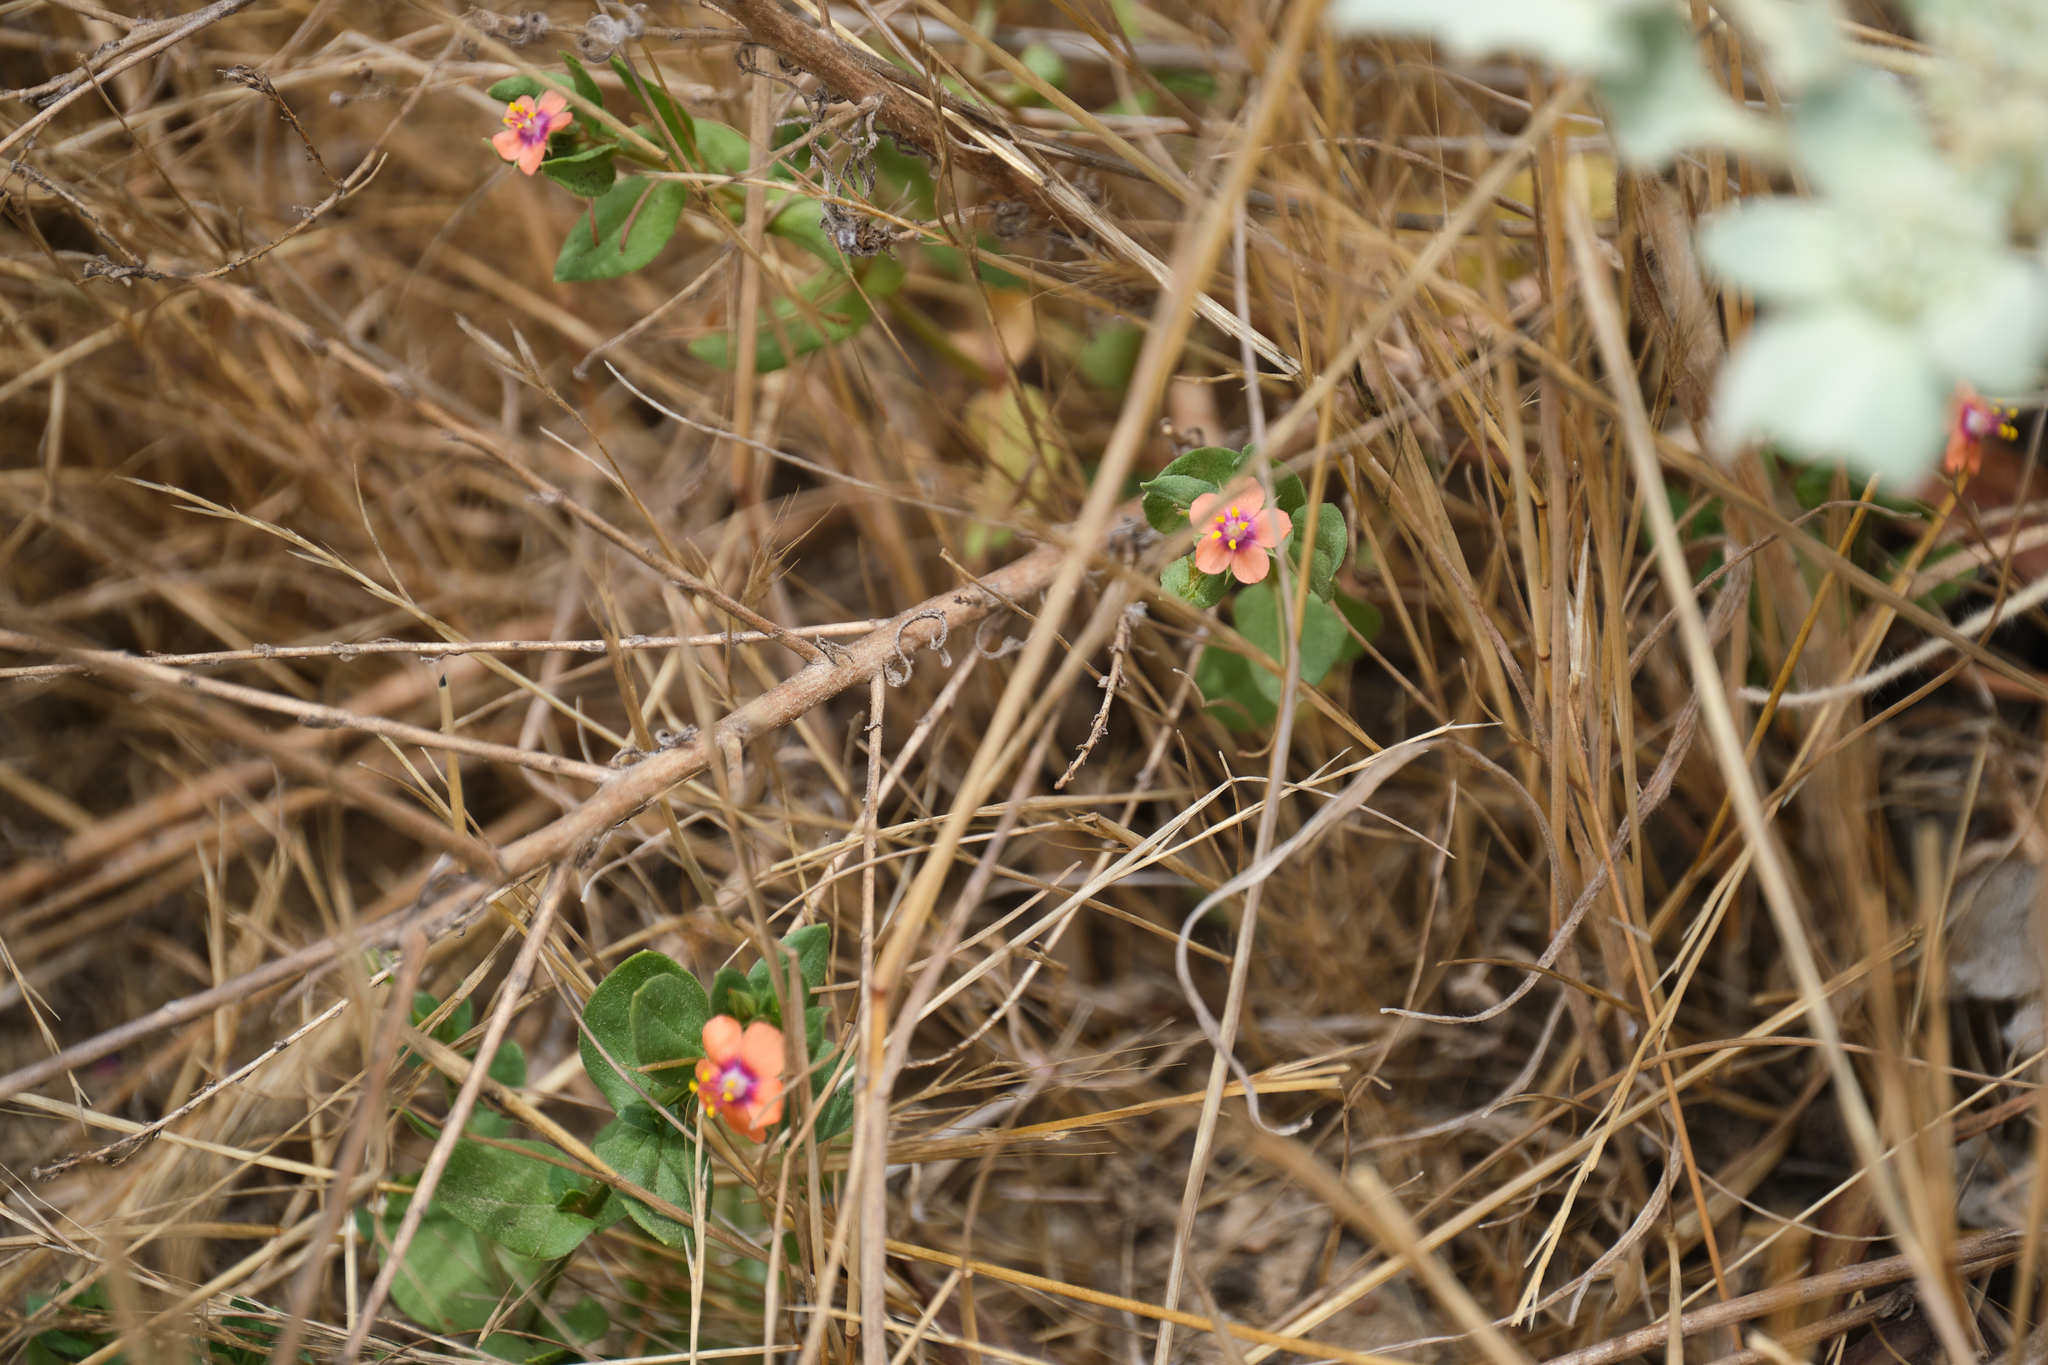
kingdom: Plantae
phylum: Tracheophyta
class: Magnoliopsida
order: Ericales
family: Primulaceae
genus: Lysimachia
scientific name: Lysimachia arvensis
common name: Scarlet pimpernel
